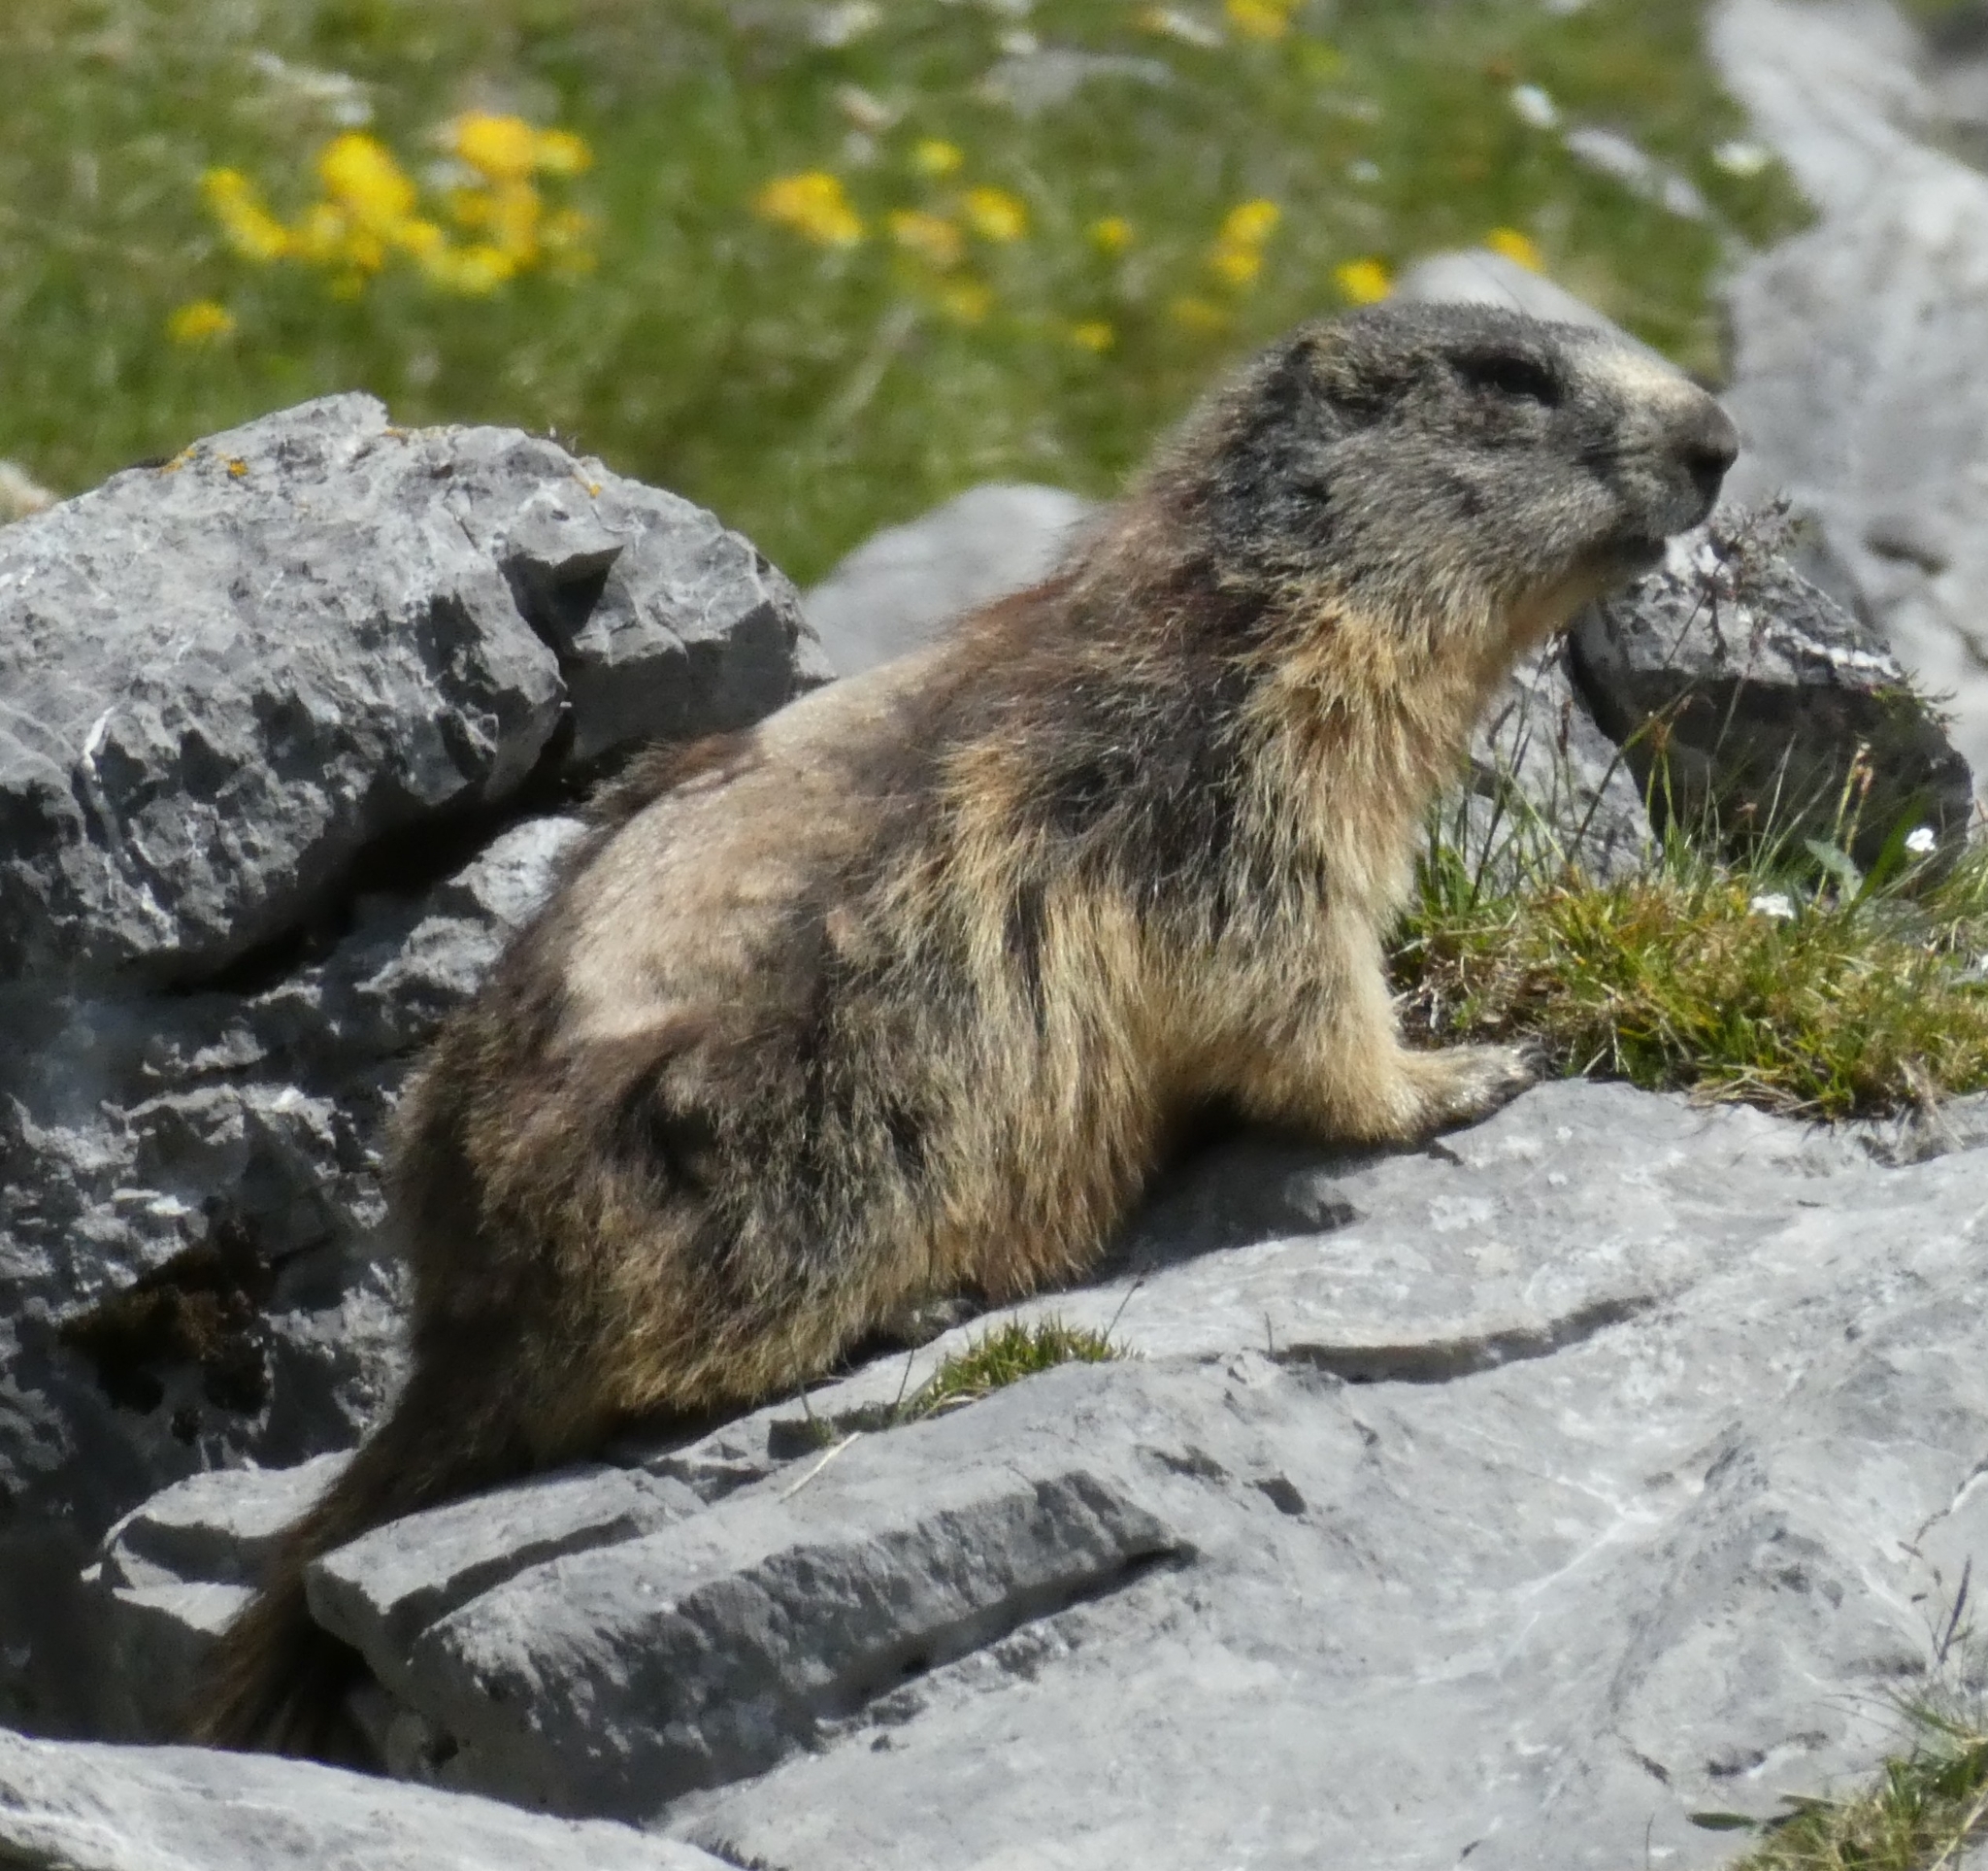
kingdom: Animalia
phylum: Chordata
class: Mammalia
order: Rodentia
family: Sciuridae
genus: Marmota
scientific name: Marmota marmota
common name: Alpine marmot
